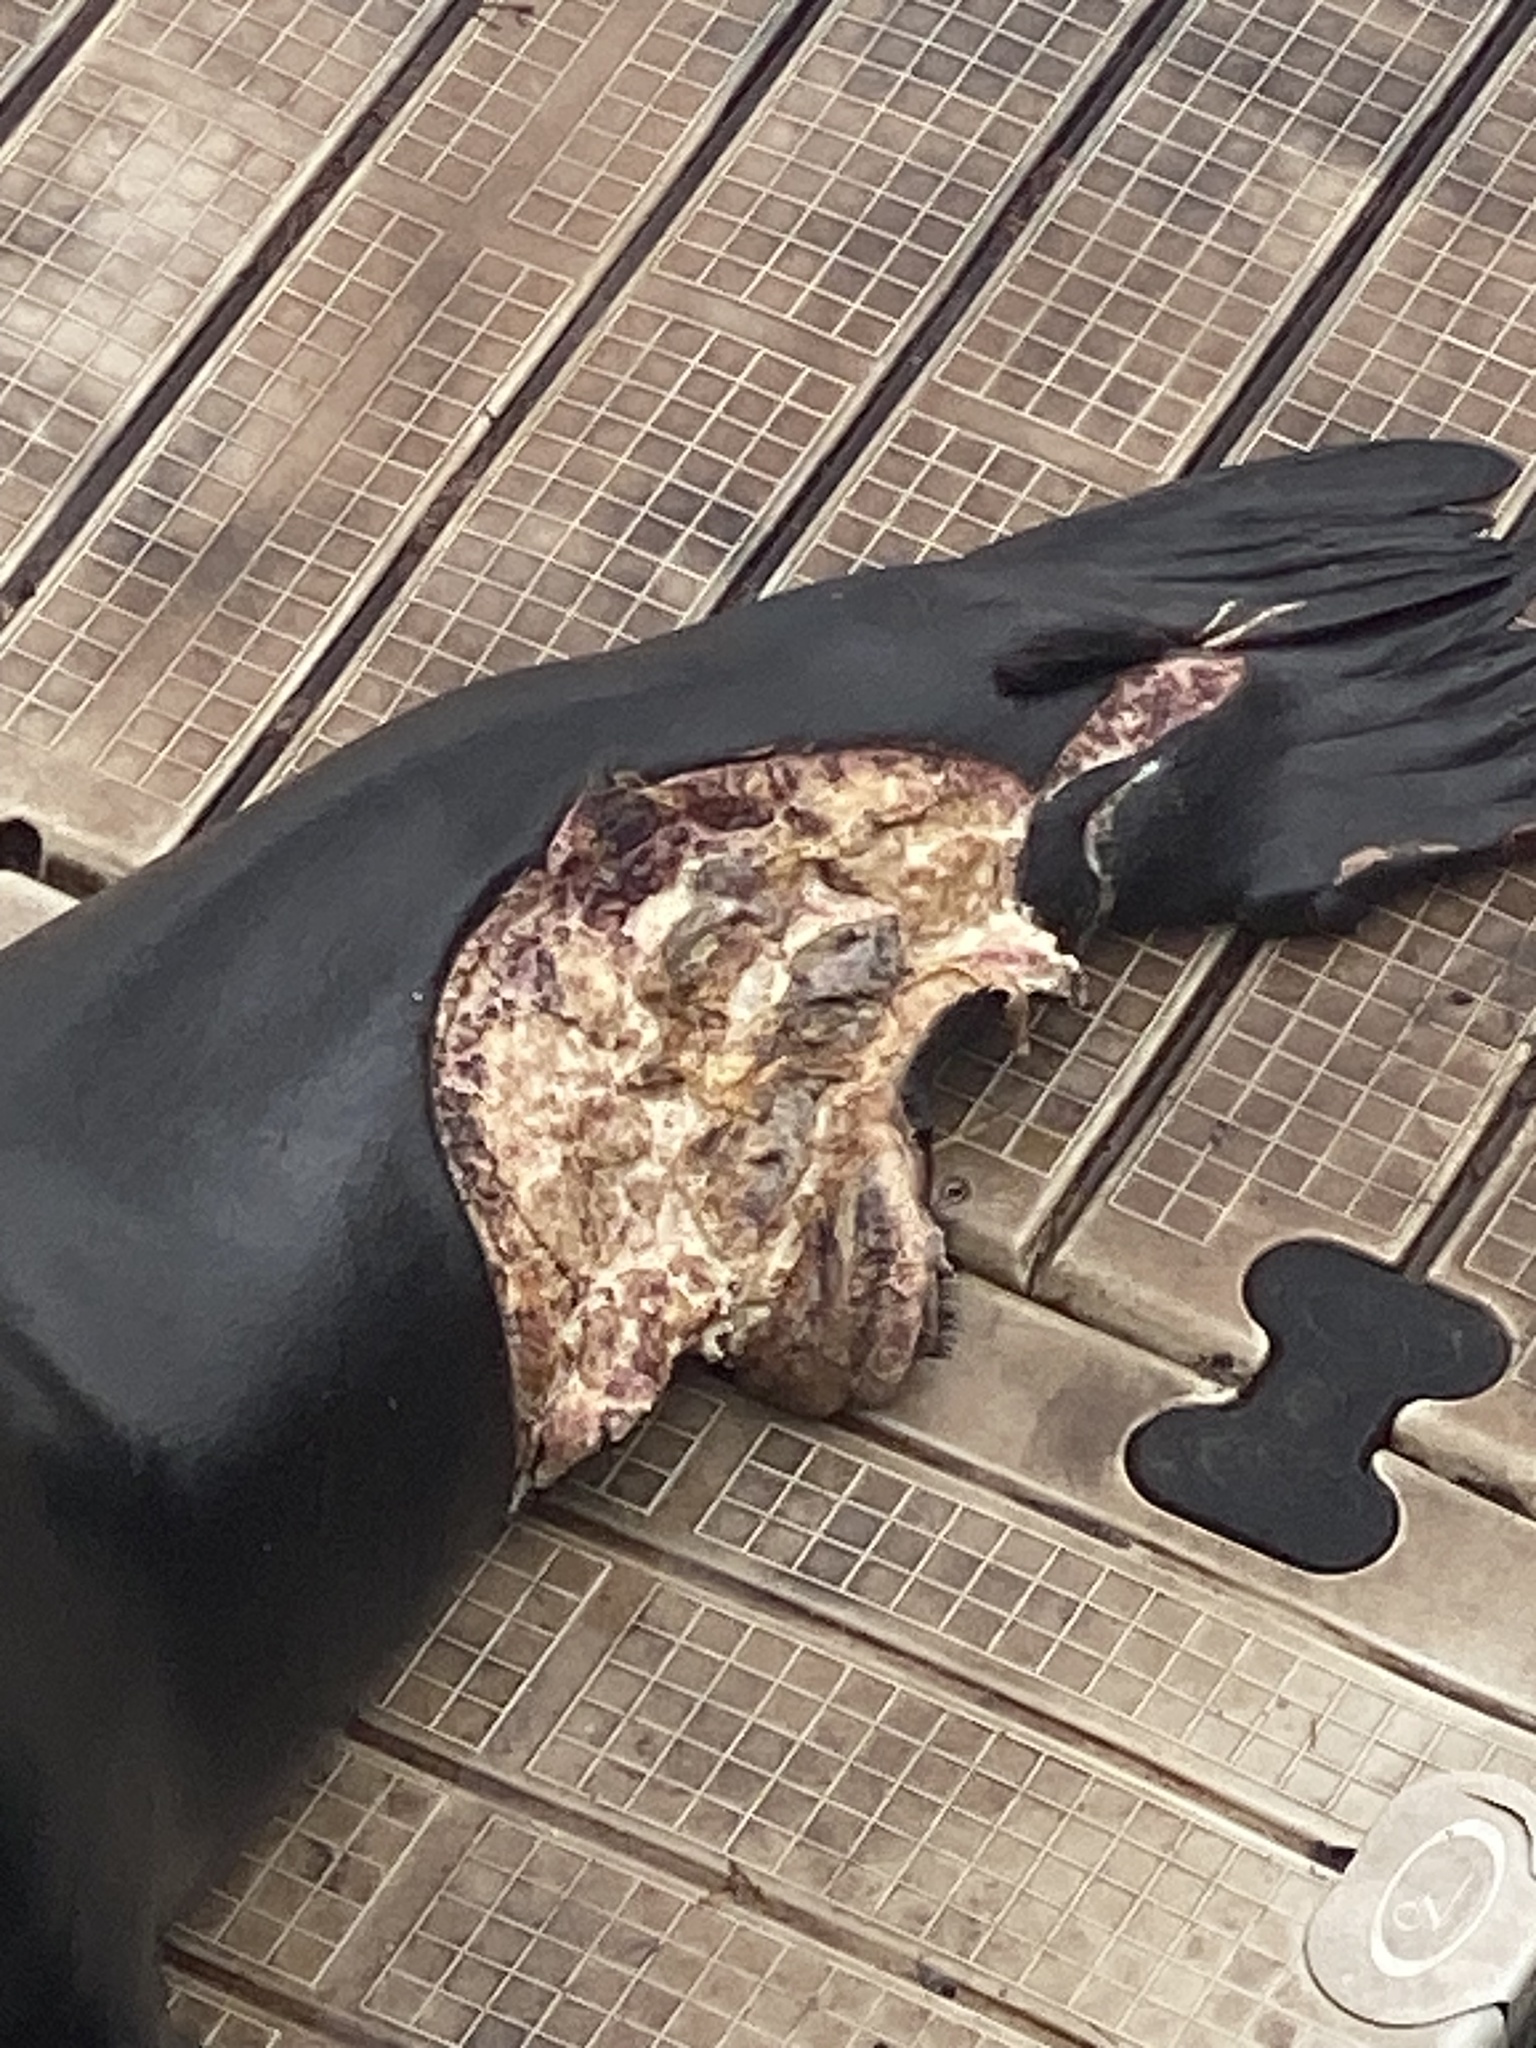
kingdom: Animalia
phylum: Chordata
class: Mammalia
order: Carnivora
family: Otariidae
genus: Zalophus
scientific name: Zalophus californianus
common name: California sea lion
